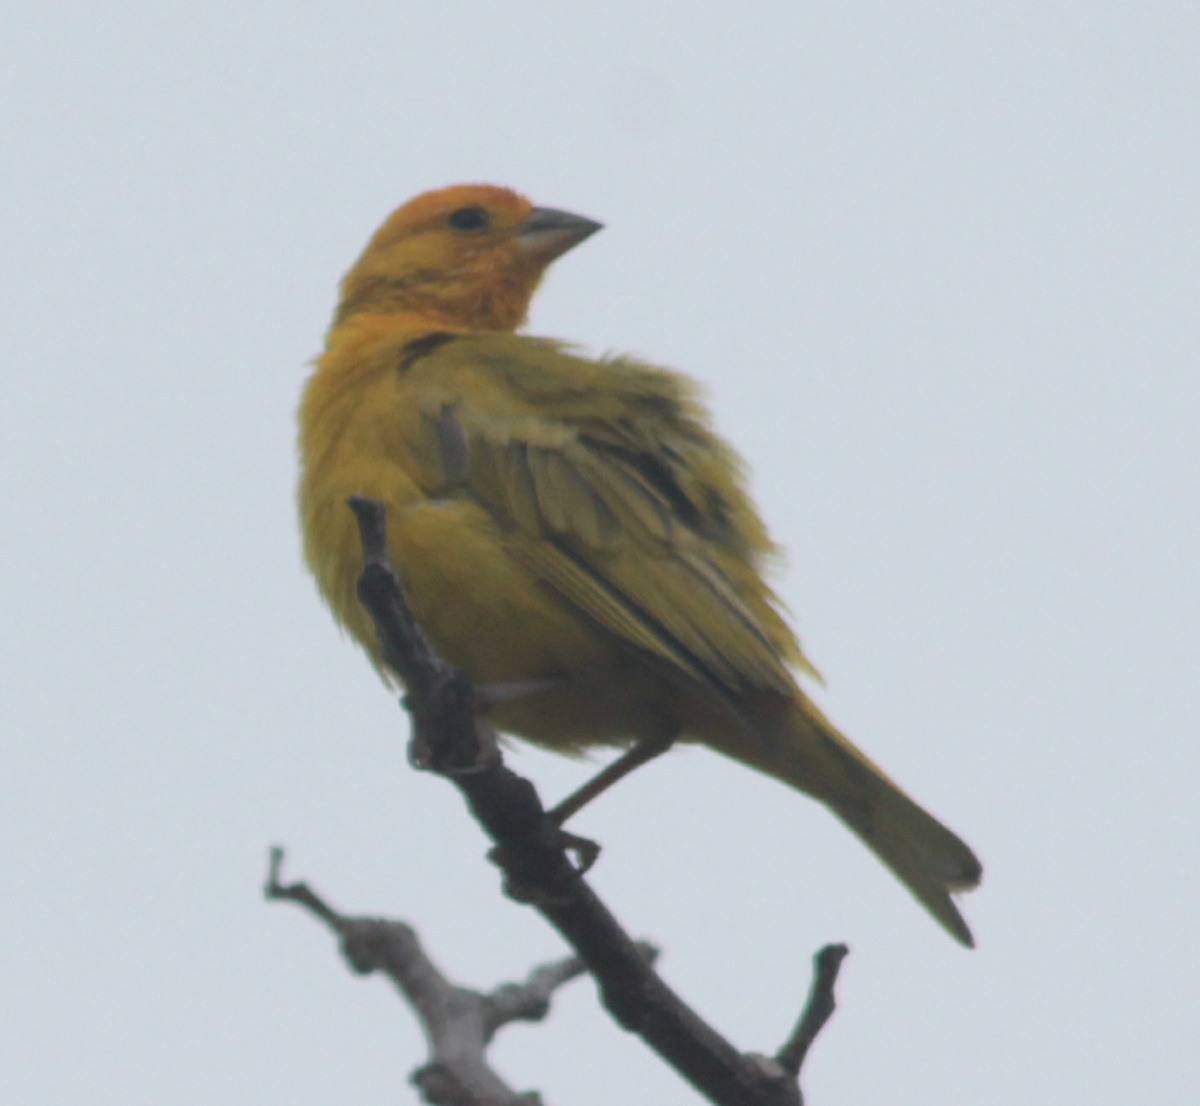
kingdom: Animalia
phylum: Chordata
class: Aves
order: Passeriformes
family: Thraupidae
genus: Sicalis
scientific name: Sicalis flaveola
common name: Saffron finch
